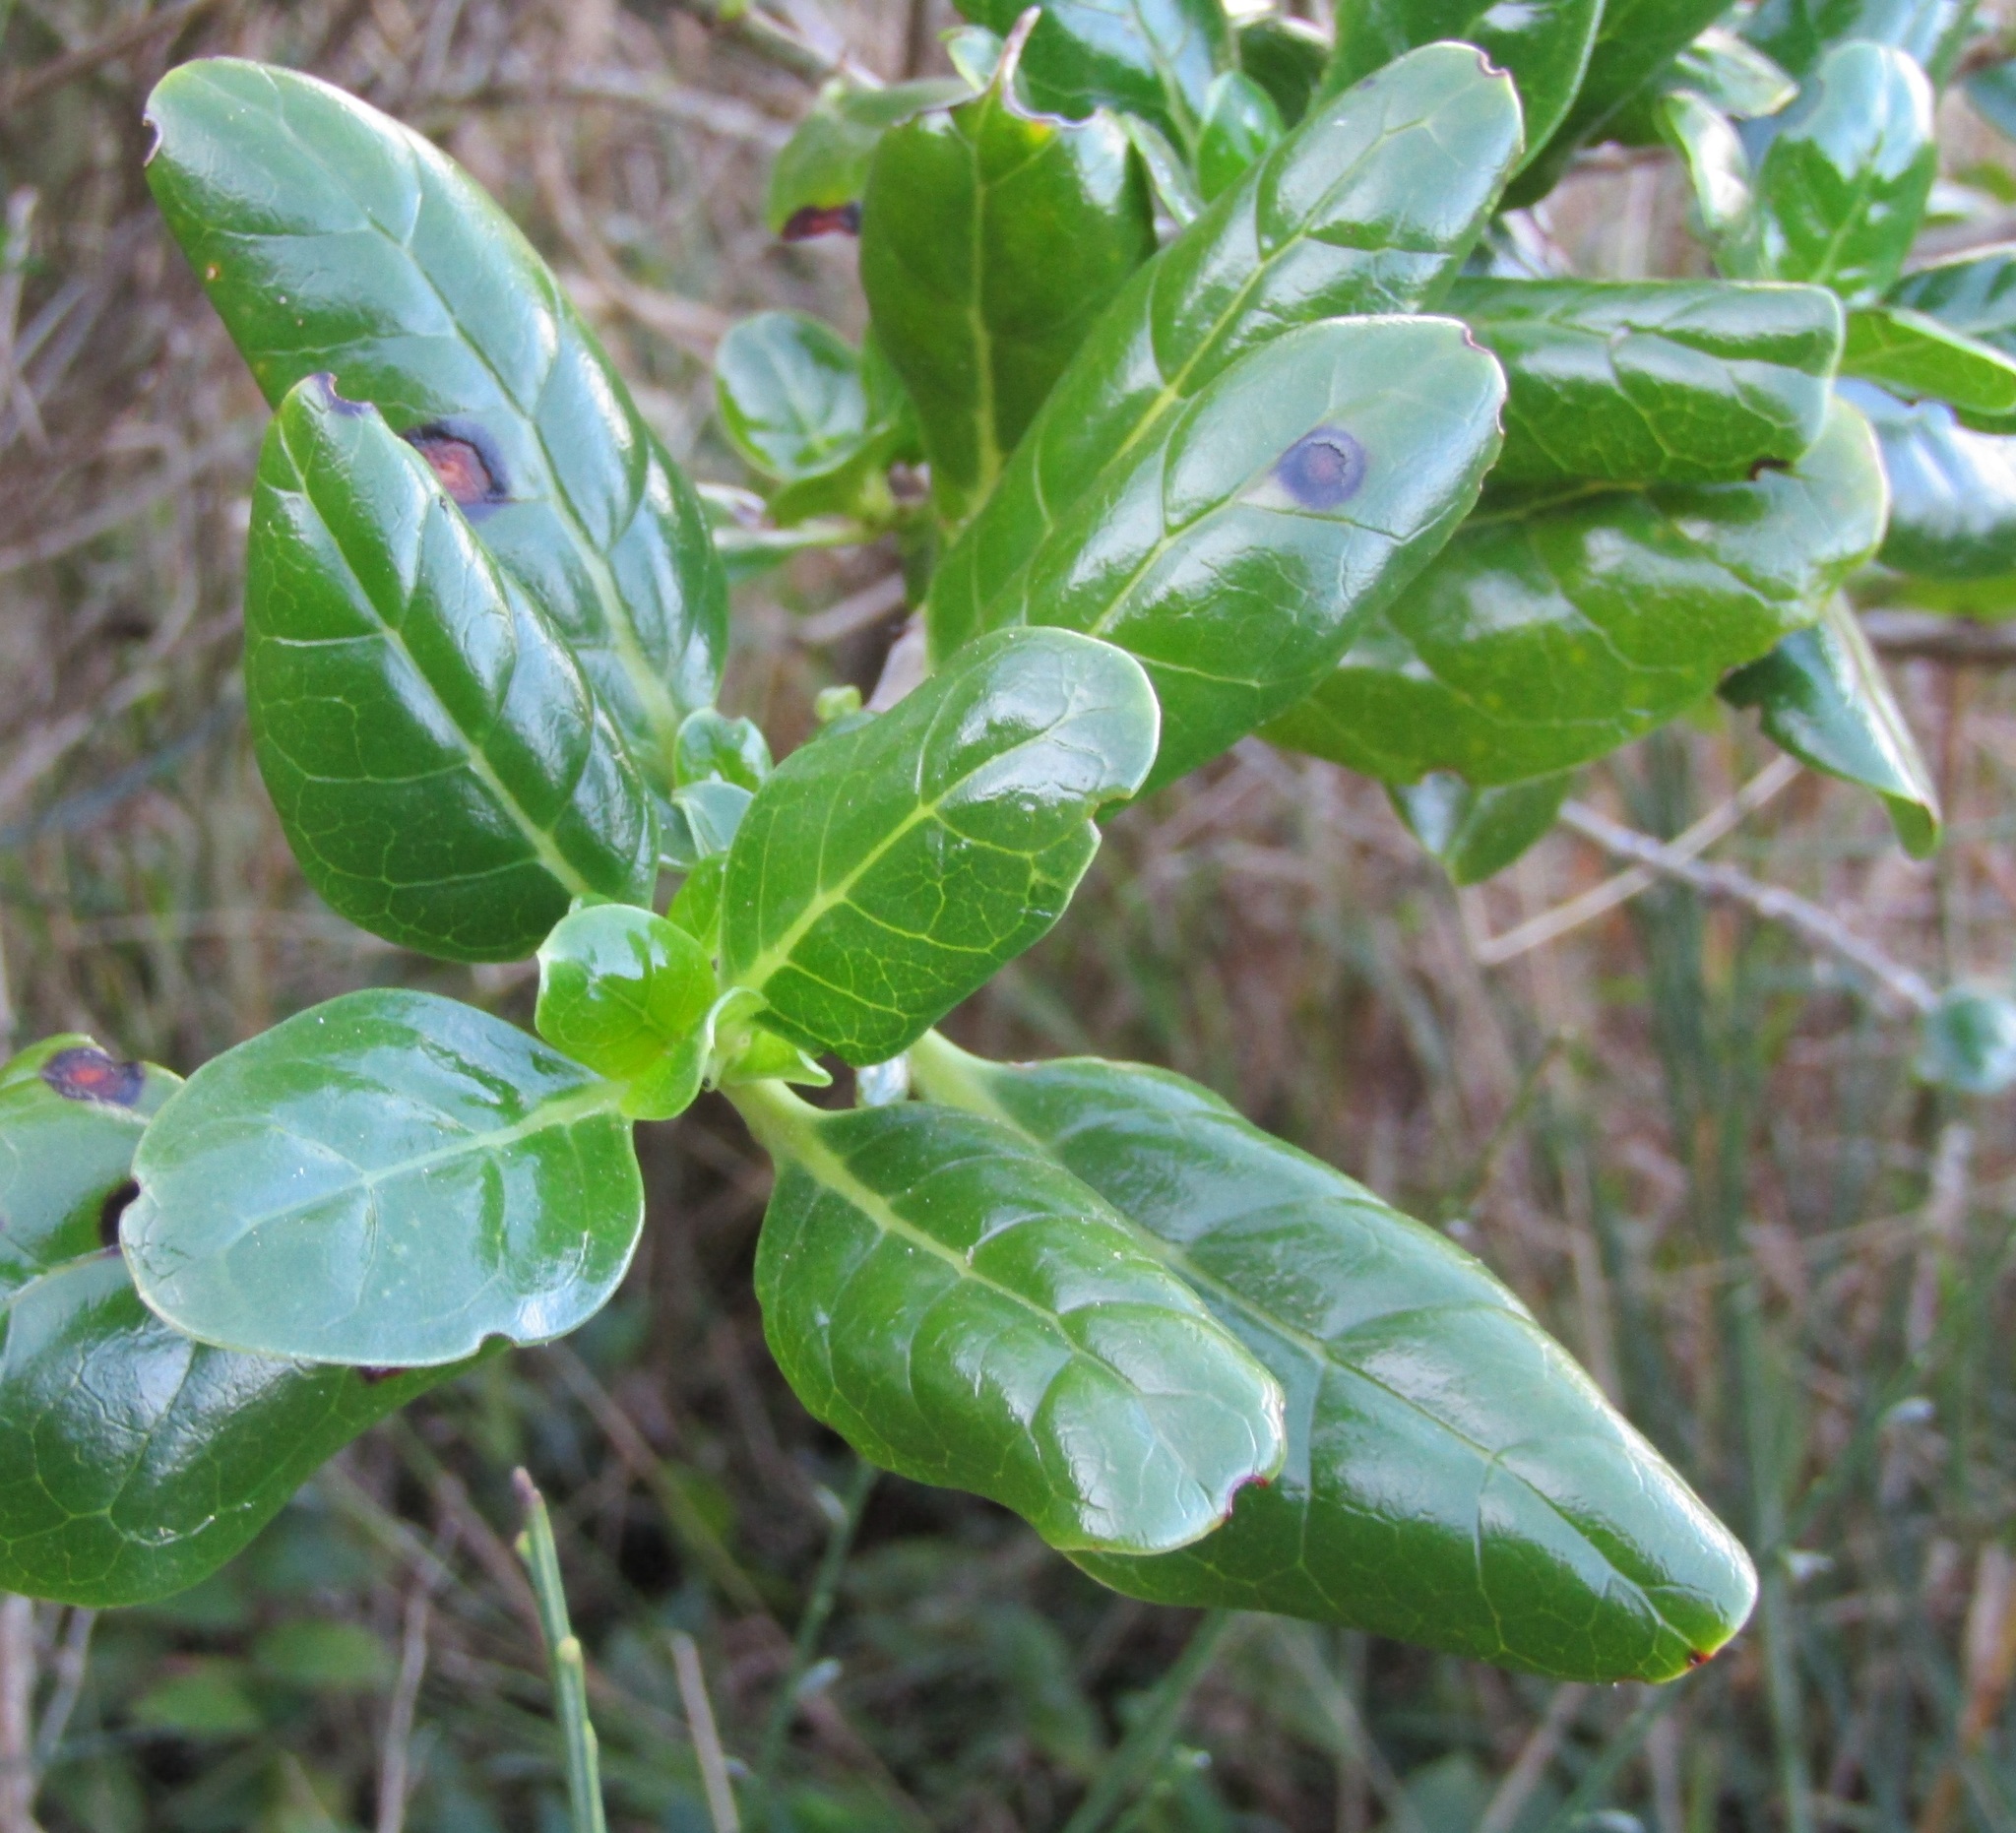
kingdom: Plantae
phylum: Tracheophyta
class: Magnoliopsida
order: Gentianales
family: Rubiaceae
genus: Coprosma
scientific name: Coprosma repens
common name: Tree bedstraw
